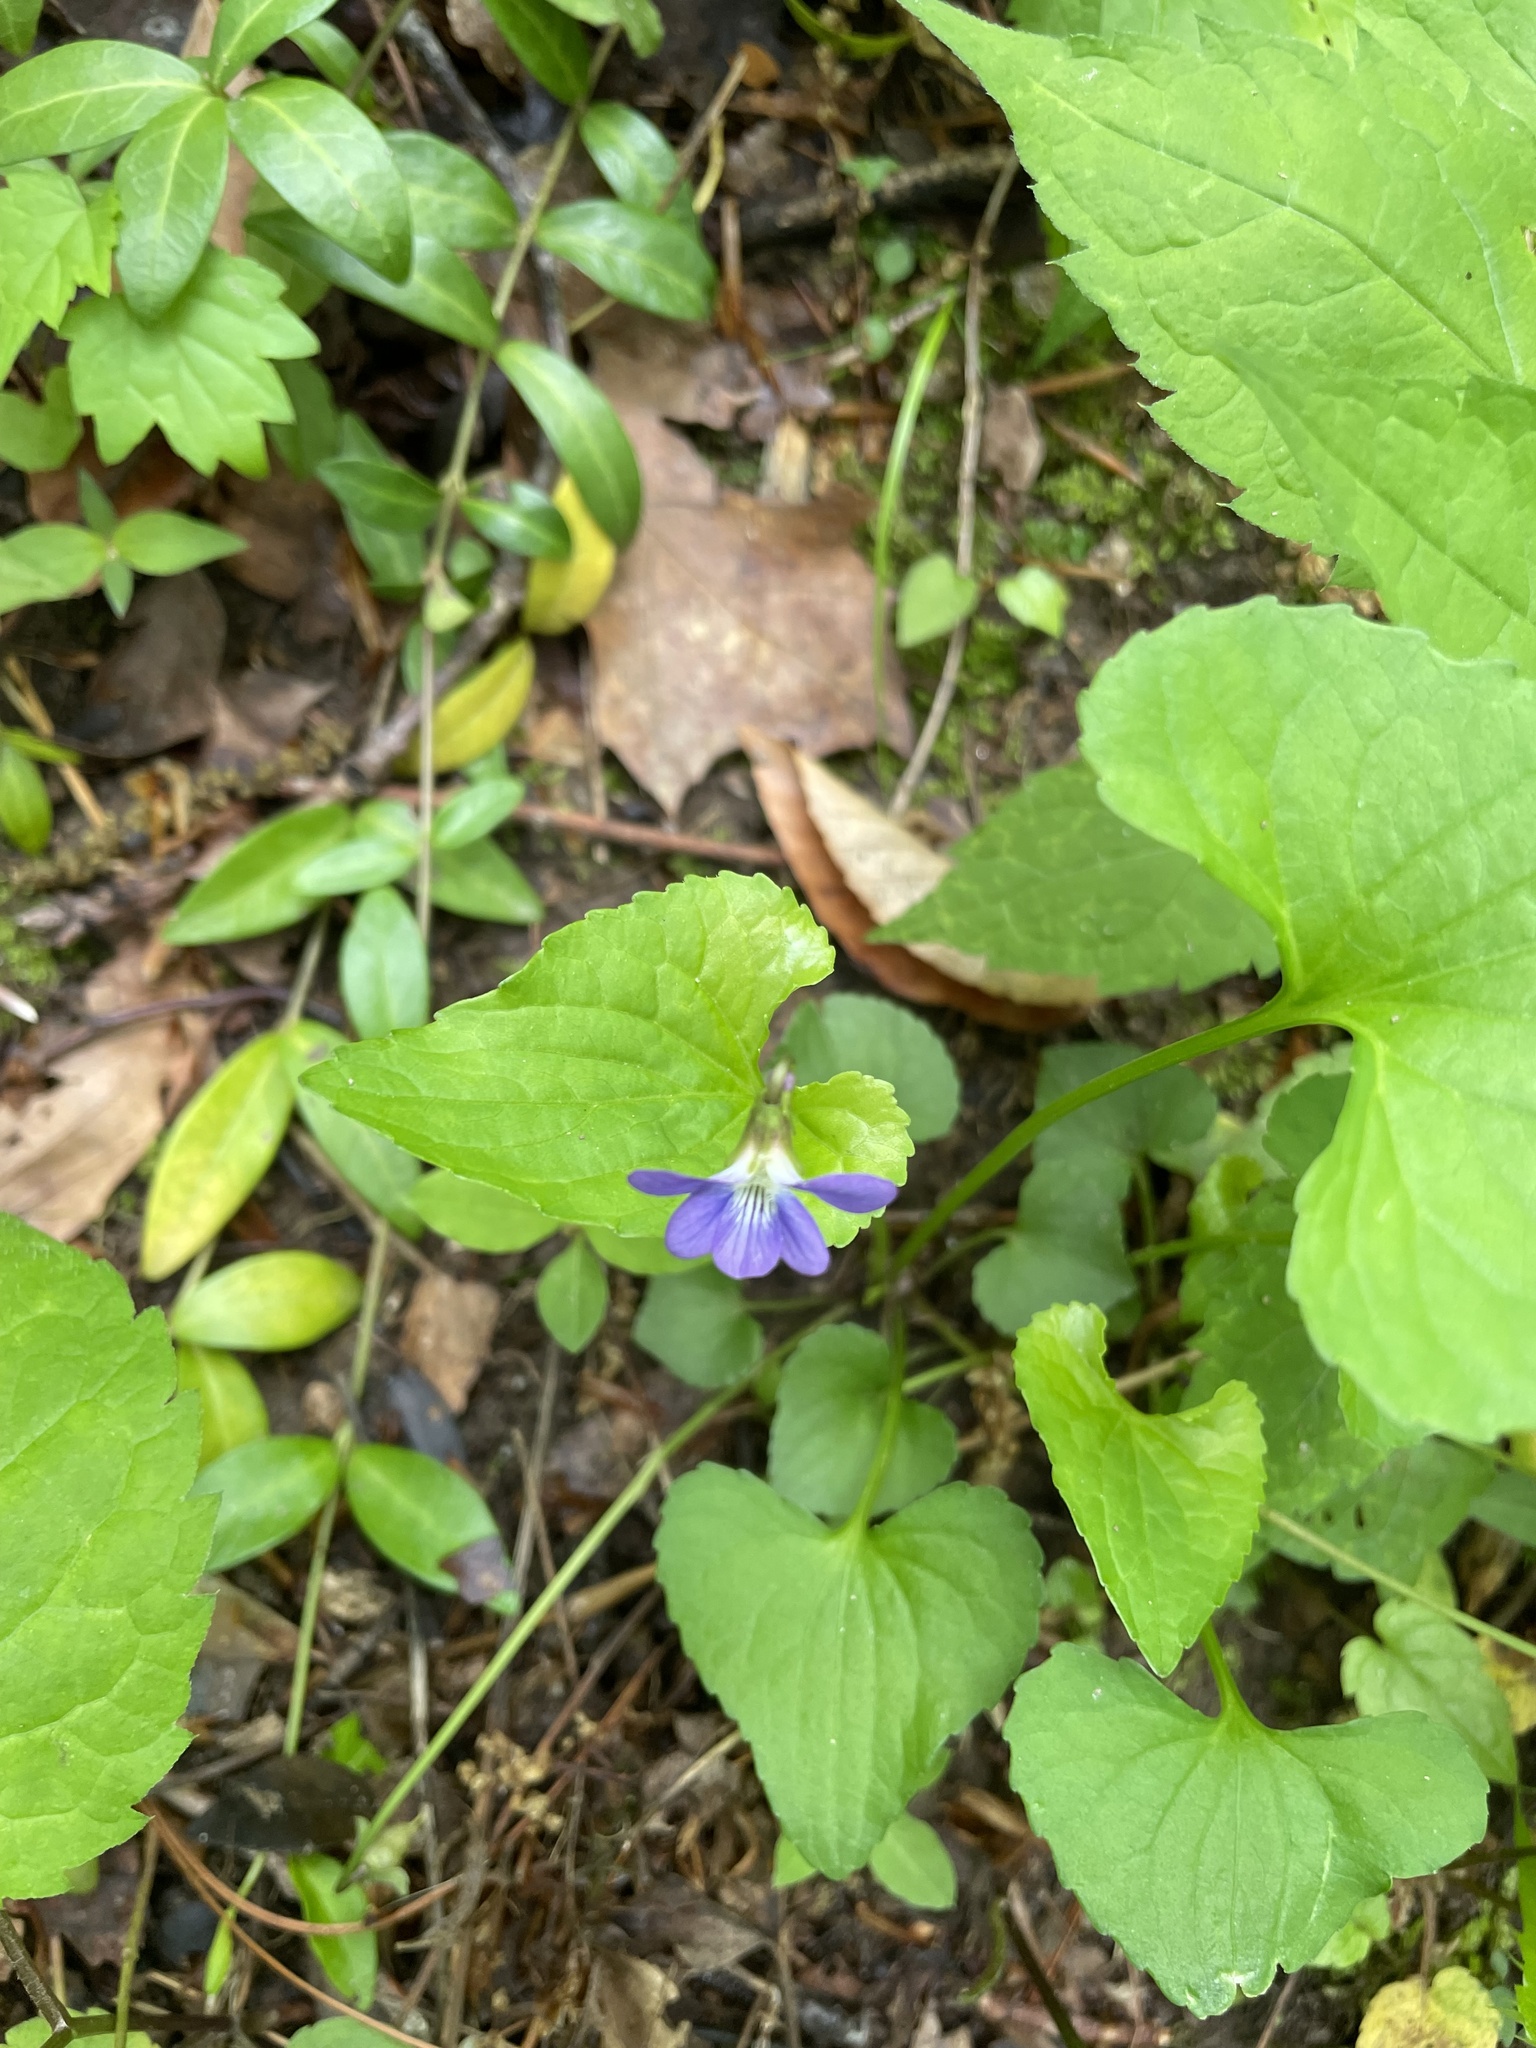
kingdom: Plantae
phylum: Tracheophyta
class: Magnoliopsida
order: Malpighiales
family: Violaceae
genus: Viola
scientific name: Viola sororia
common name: Dooryard violet
